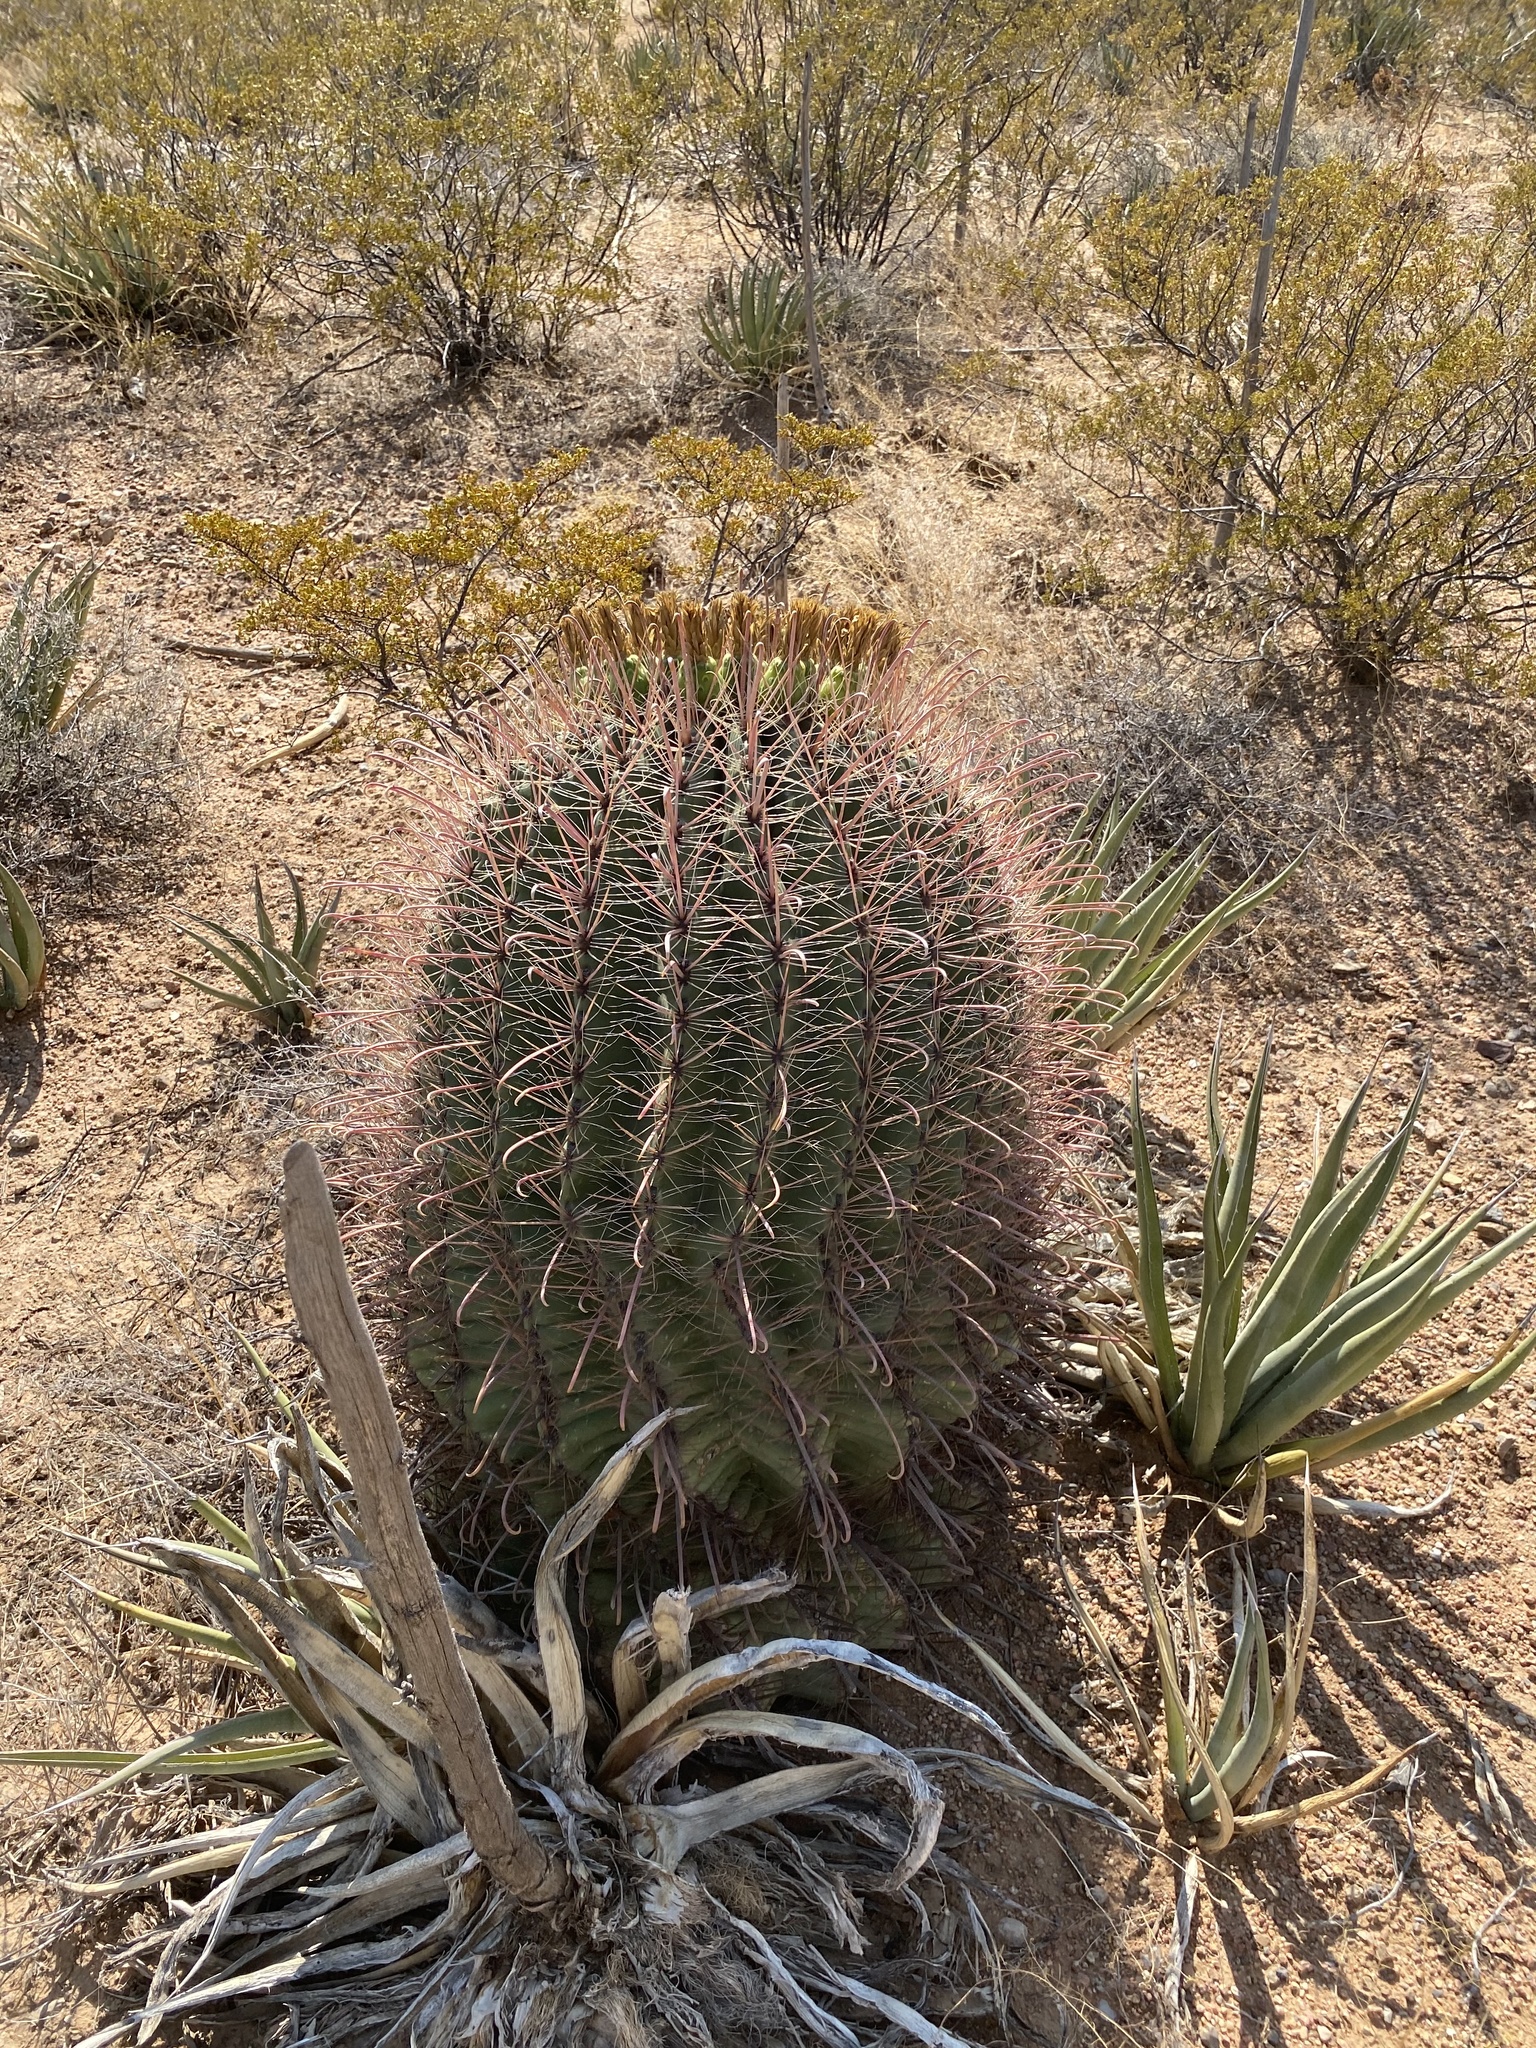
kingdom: Plantae
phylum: Tracheophyta
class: Magnoliopsida
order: Caryophyllales
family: Cactaceae
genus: Ferocactus
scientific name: Ferocactus wislizeni
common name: Candy barrel cactus
